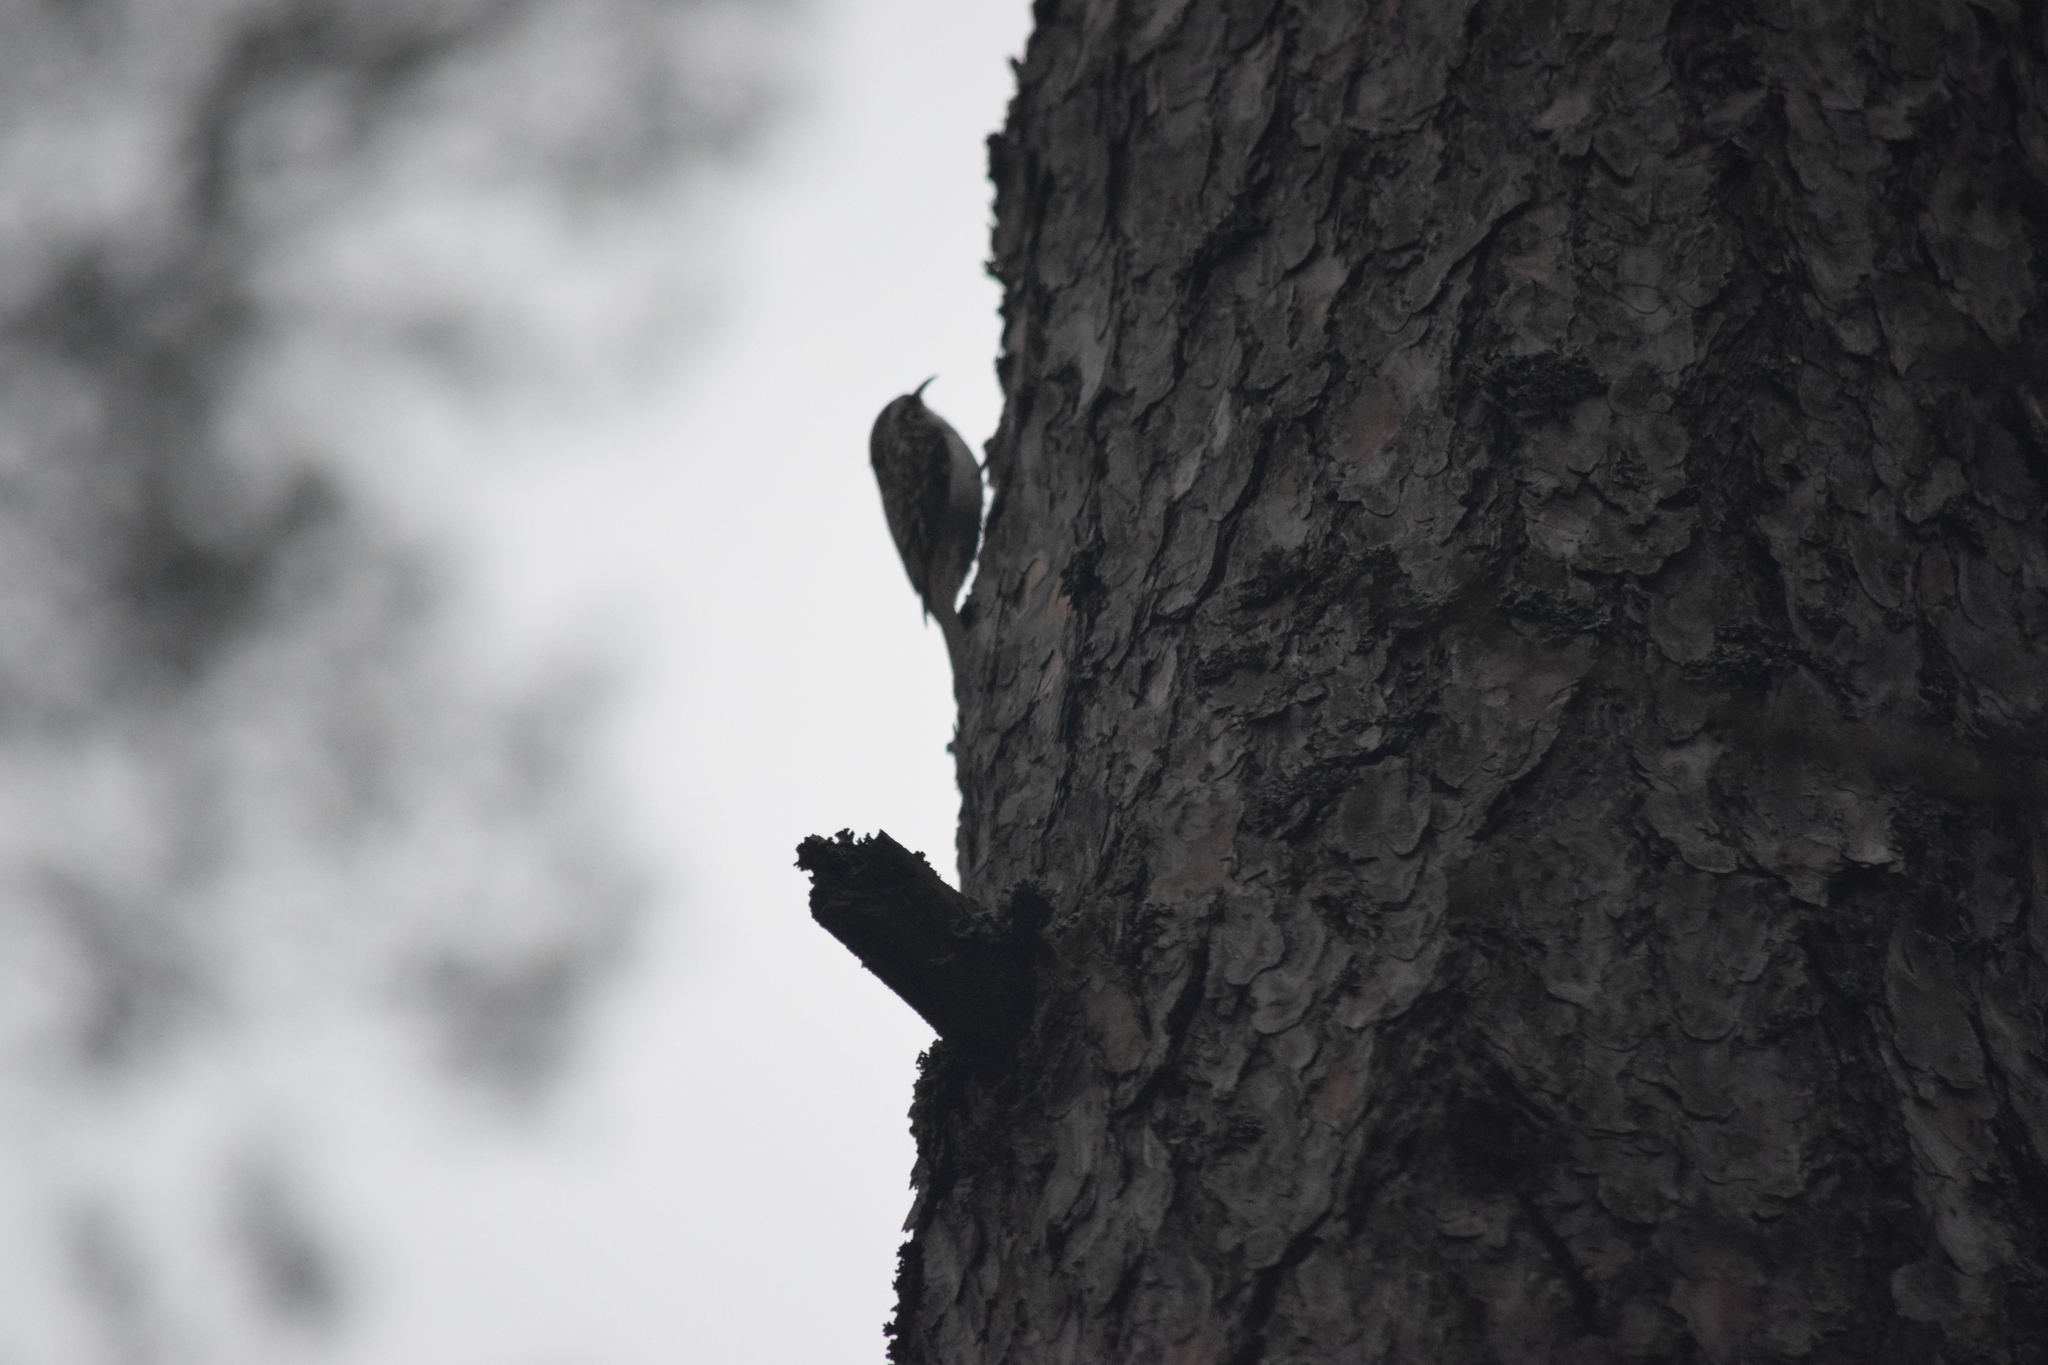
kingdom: Animalia
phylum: Chordata
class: Aves
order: Passeriformes
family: Certhiidae
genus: Certhia
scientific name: Certhia familiaris
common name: Eurasian treecreeper
